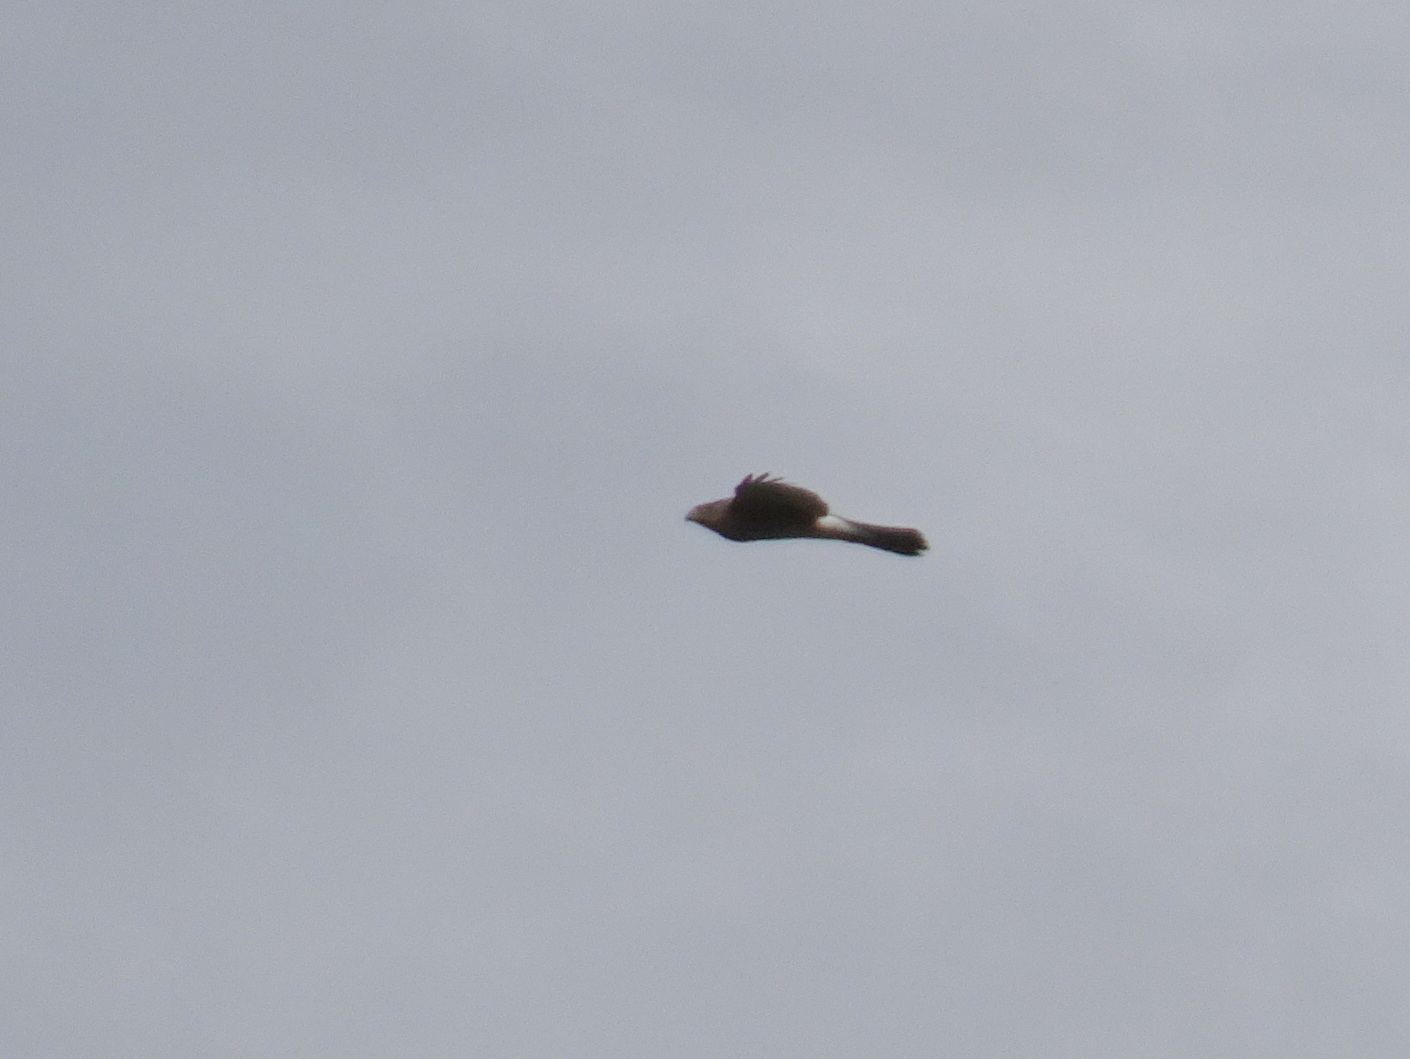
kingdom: Animalia
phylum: Chordata
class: Aves
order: Accipitriformes
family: Accipitridae
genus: Accipiter
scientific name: Accipiter cooperii
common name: Cooper's hawk
